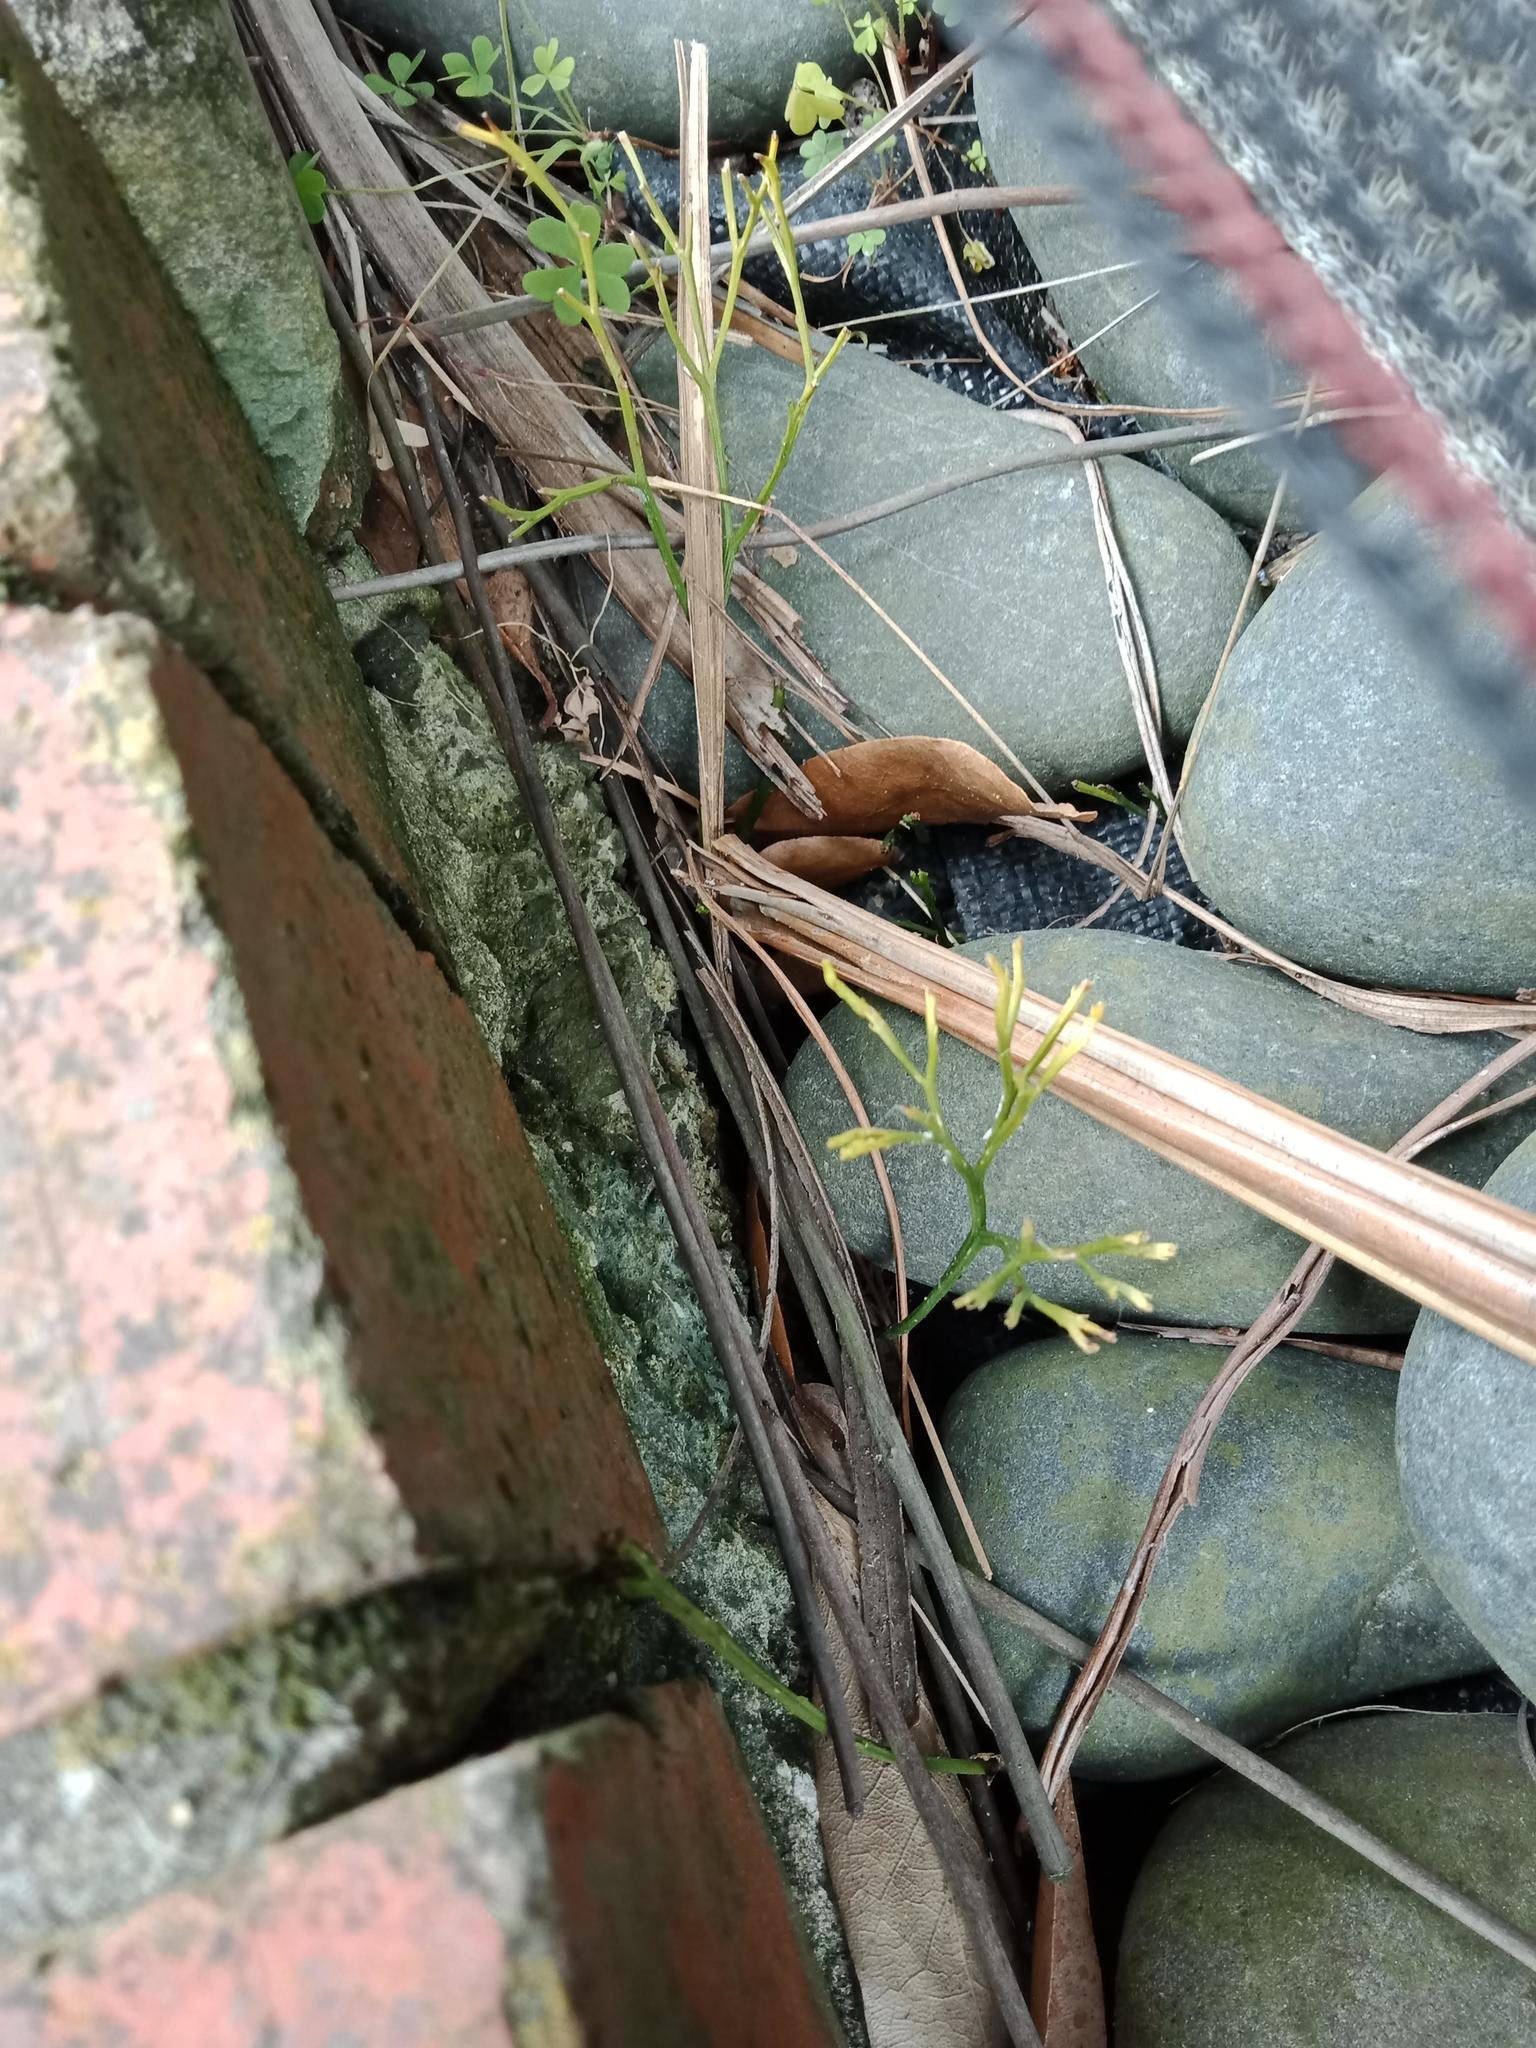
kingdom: Plantae
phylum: Tracheophyta
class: Polypodiopsida
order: Psilotales
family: Psilotaceae
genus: Psilotum
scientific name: Psilotum nudum
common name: Skeleton fork fern
